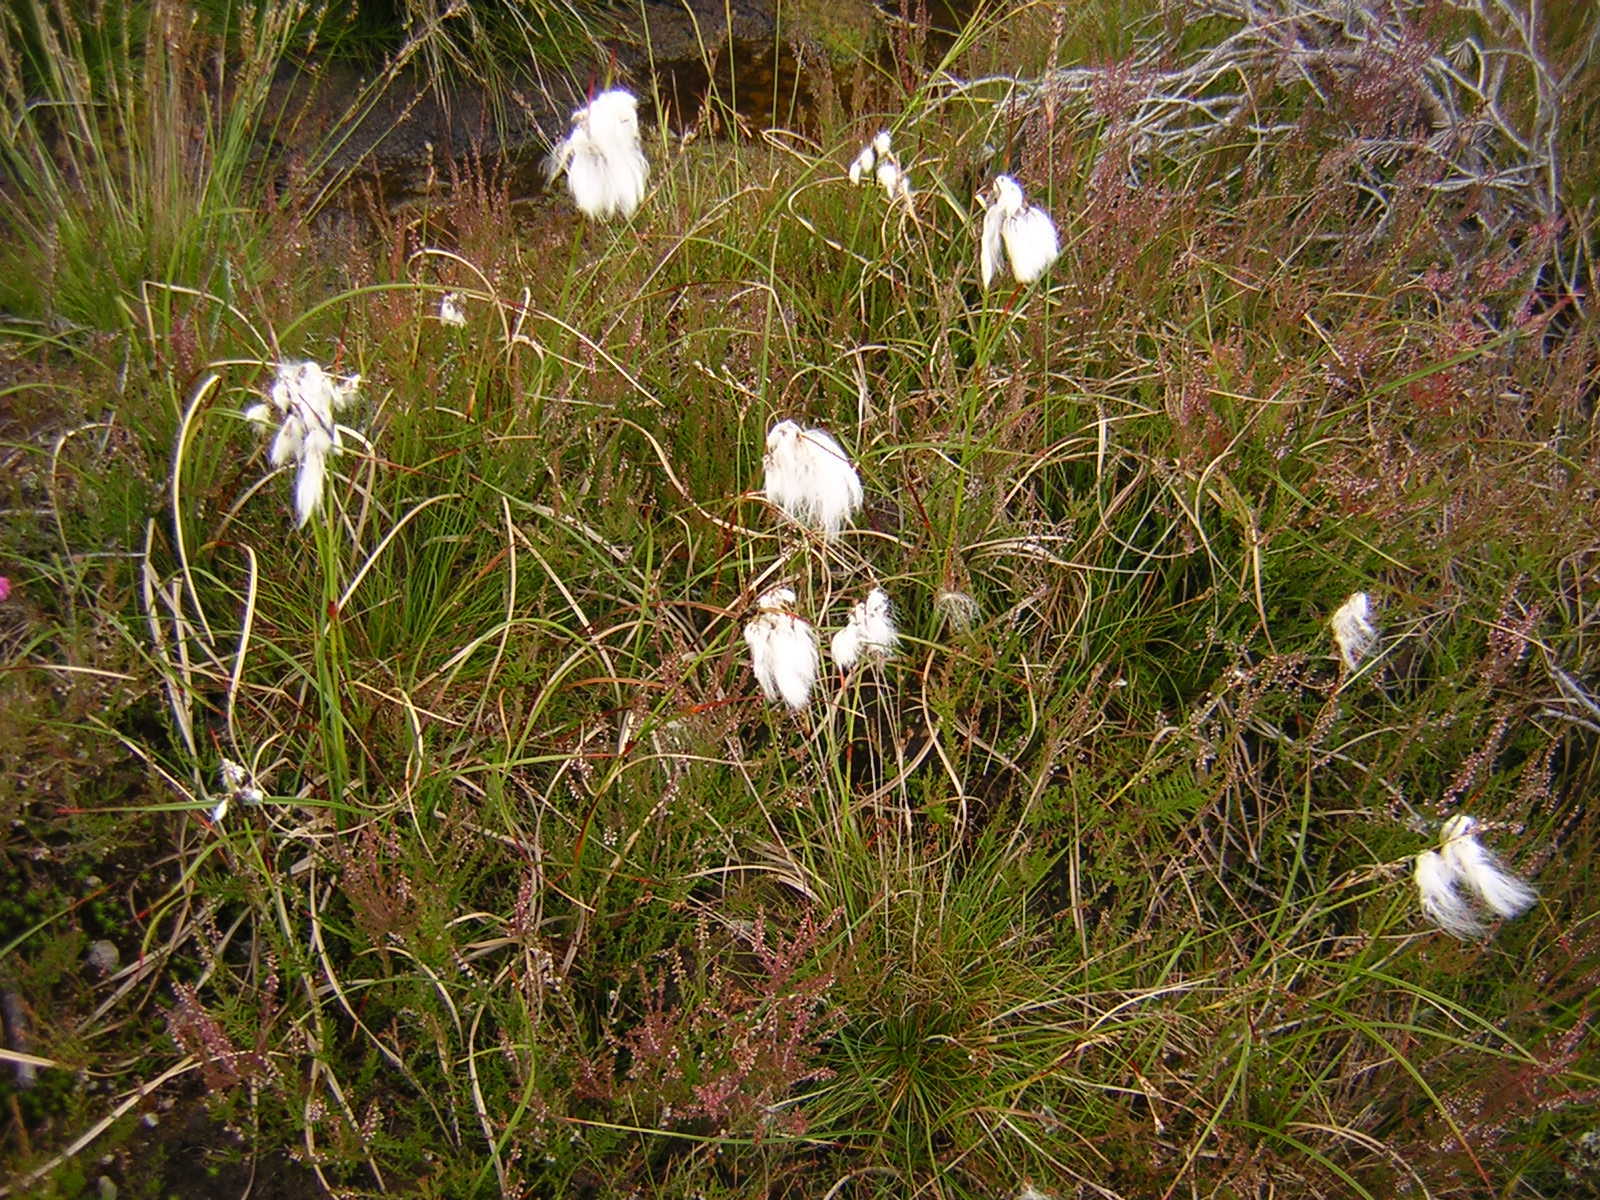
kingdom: Plantae
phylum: Tracheophyta
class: Liliopsida
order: Poales
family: Cyperaceae
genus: Eriophorum
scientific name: Eriophorum angustifolium
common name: Common cottongrass
